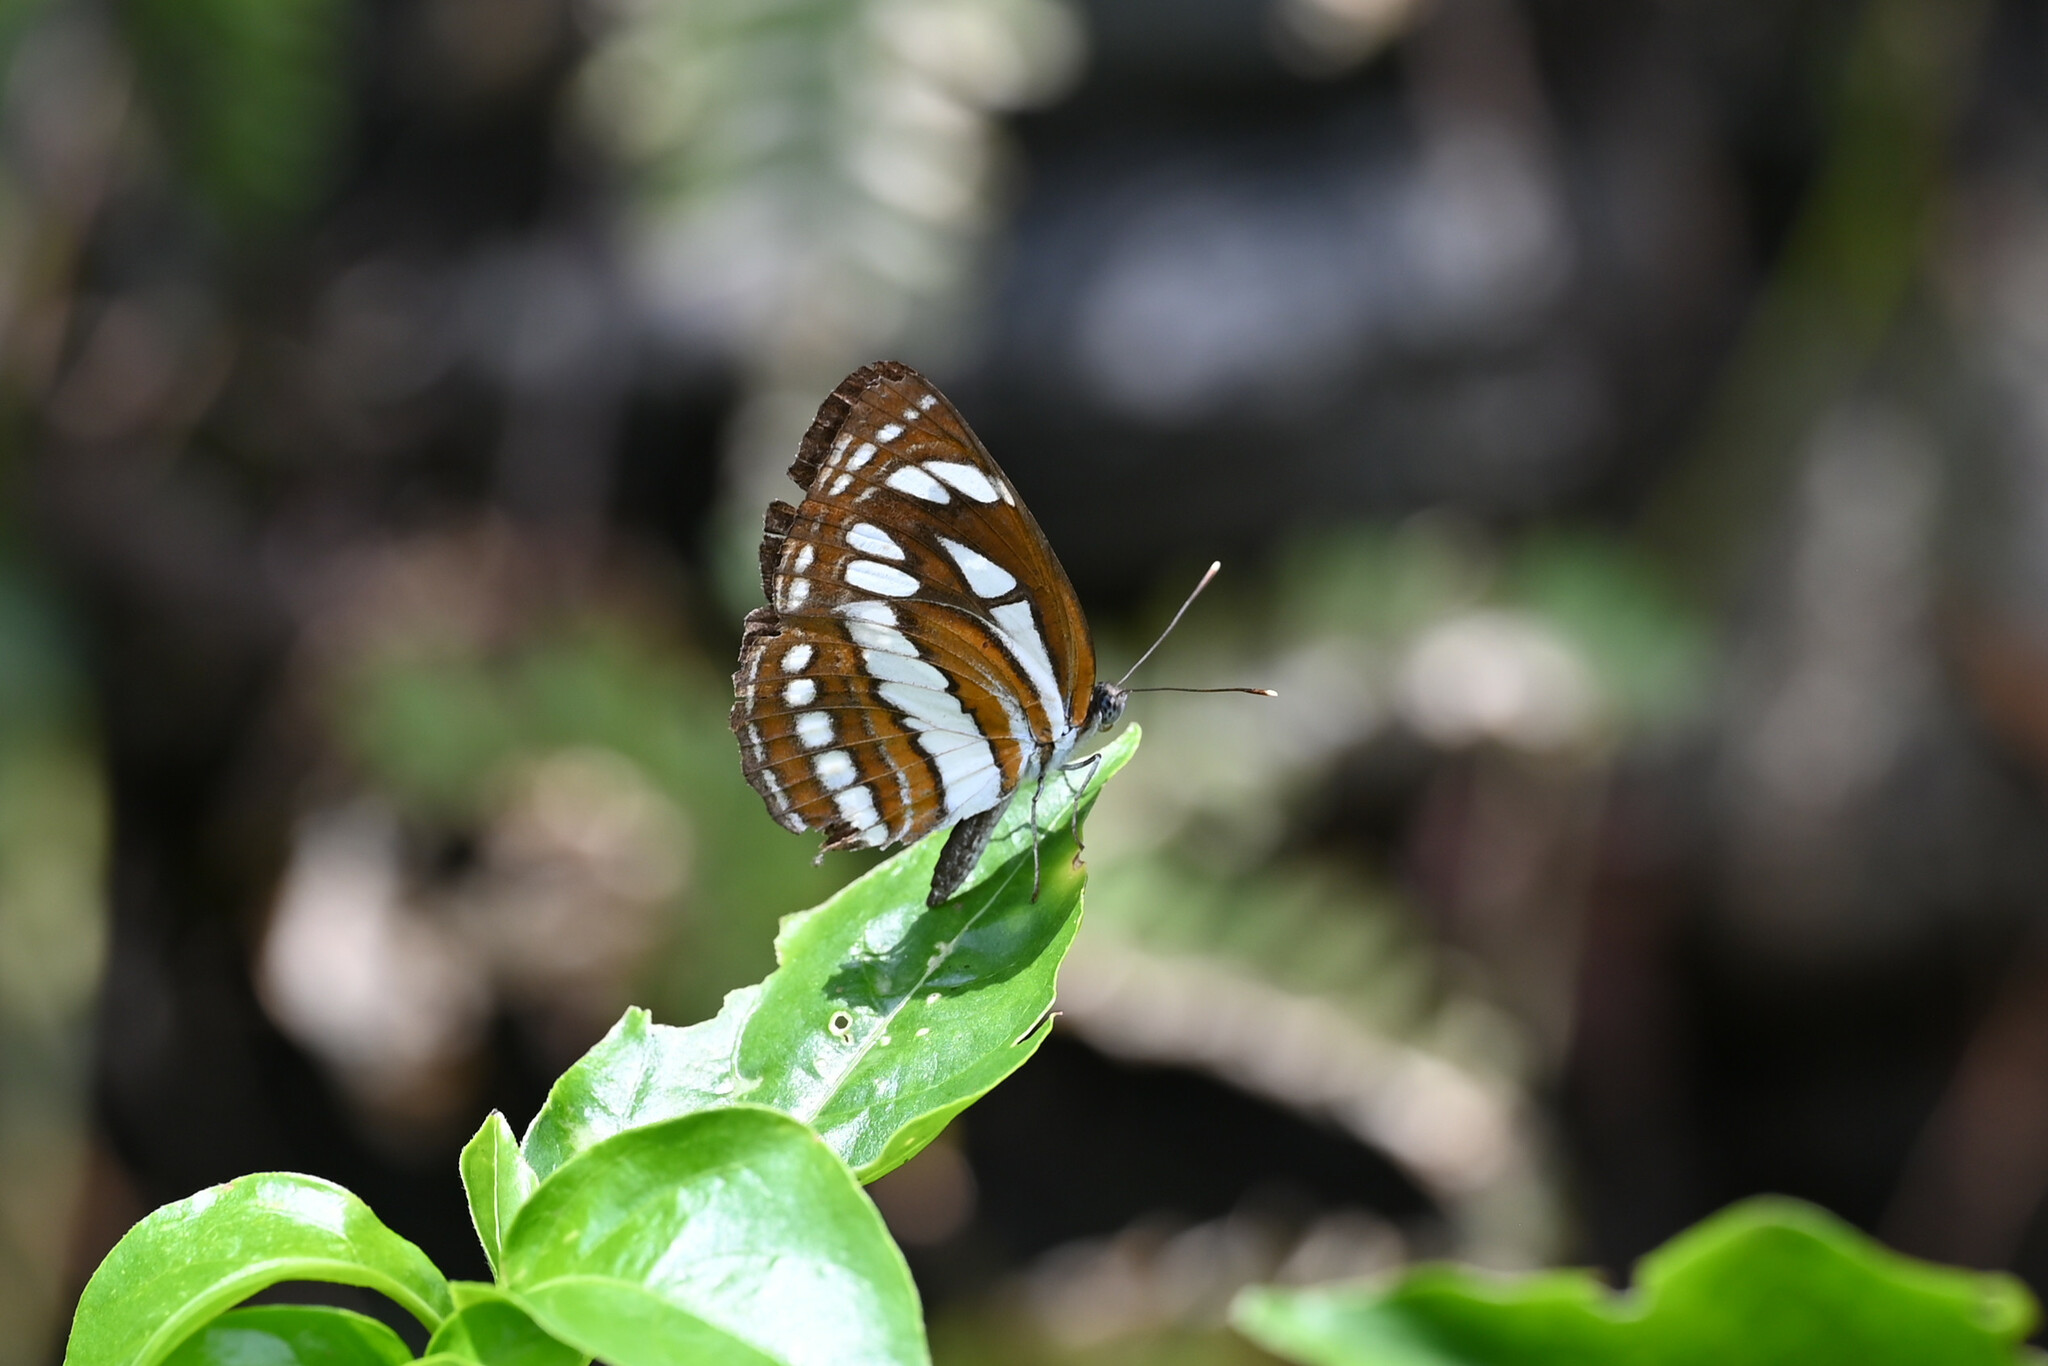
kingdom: Animalia
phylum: Arthropoda
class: Insecta
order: Lepidoptera
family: Nymphalidae
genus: Neptis
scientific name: Neptis hylas
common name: Common sailer
